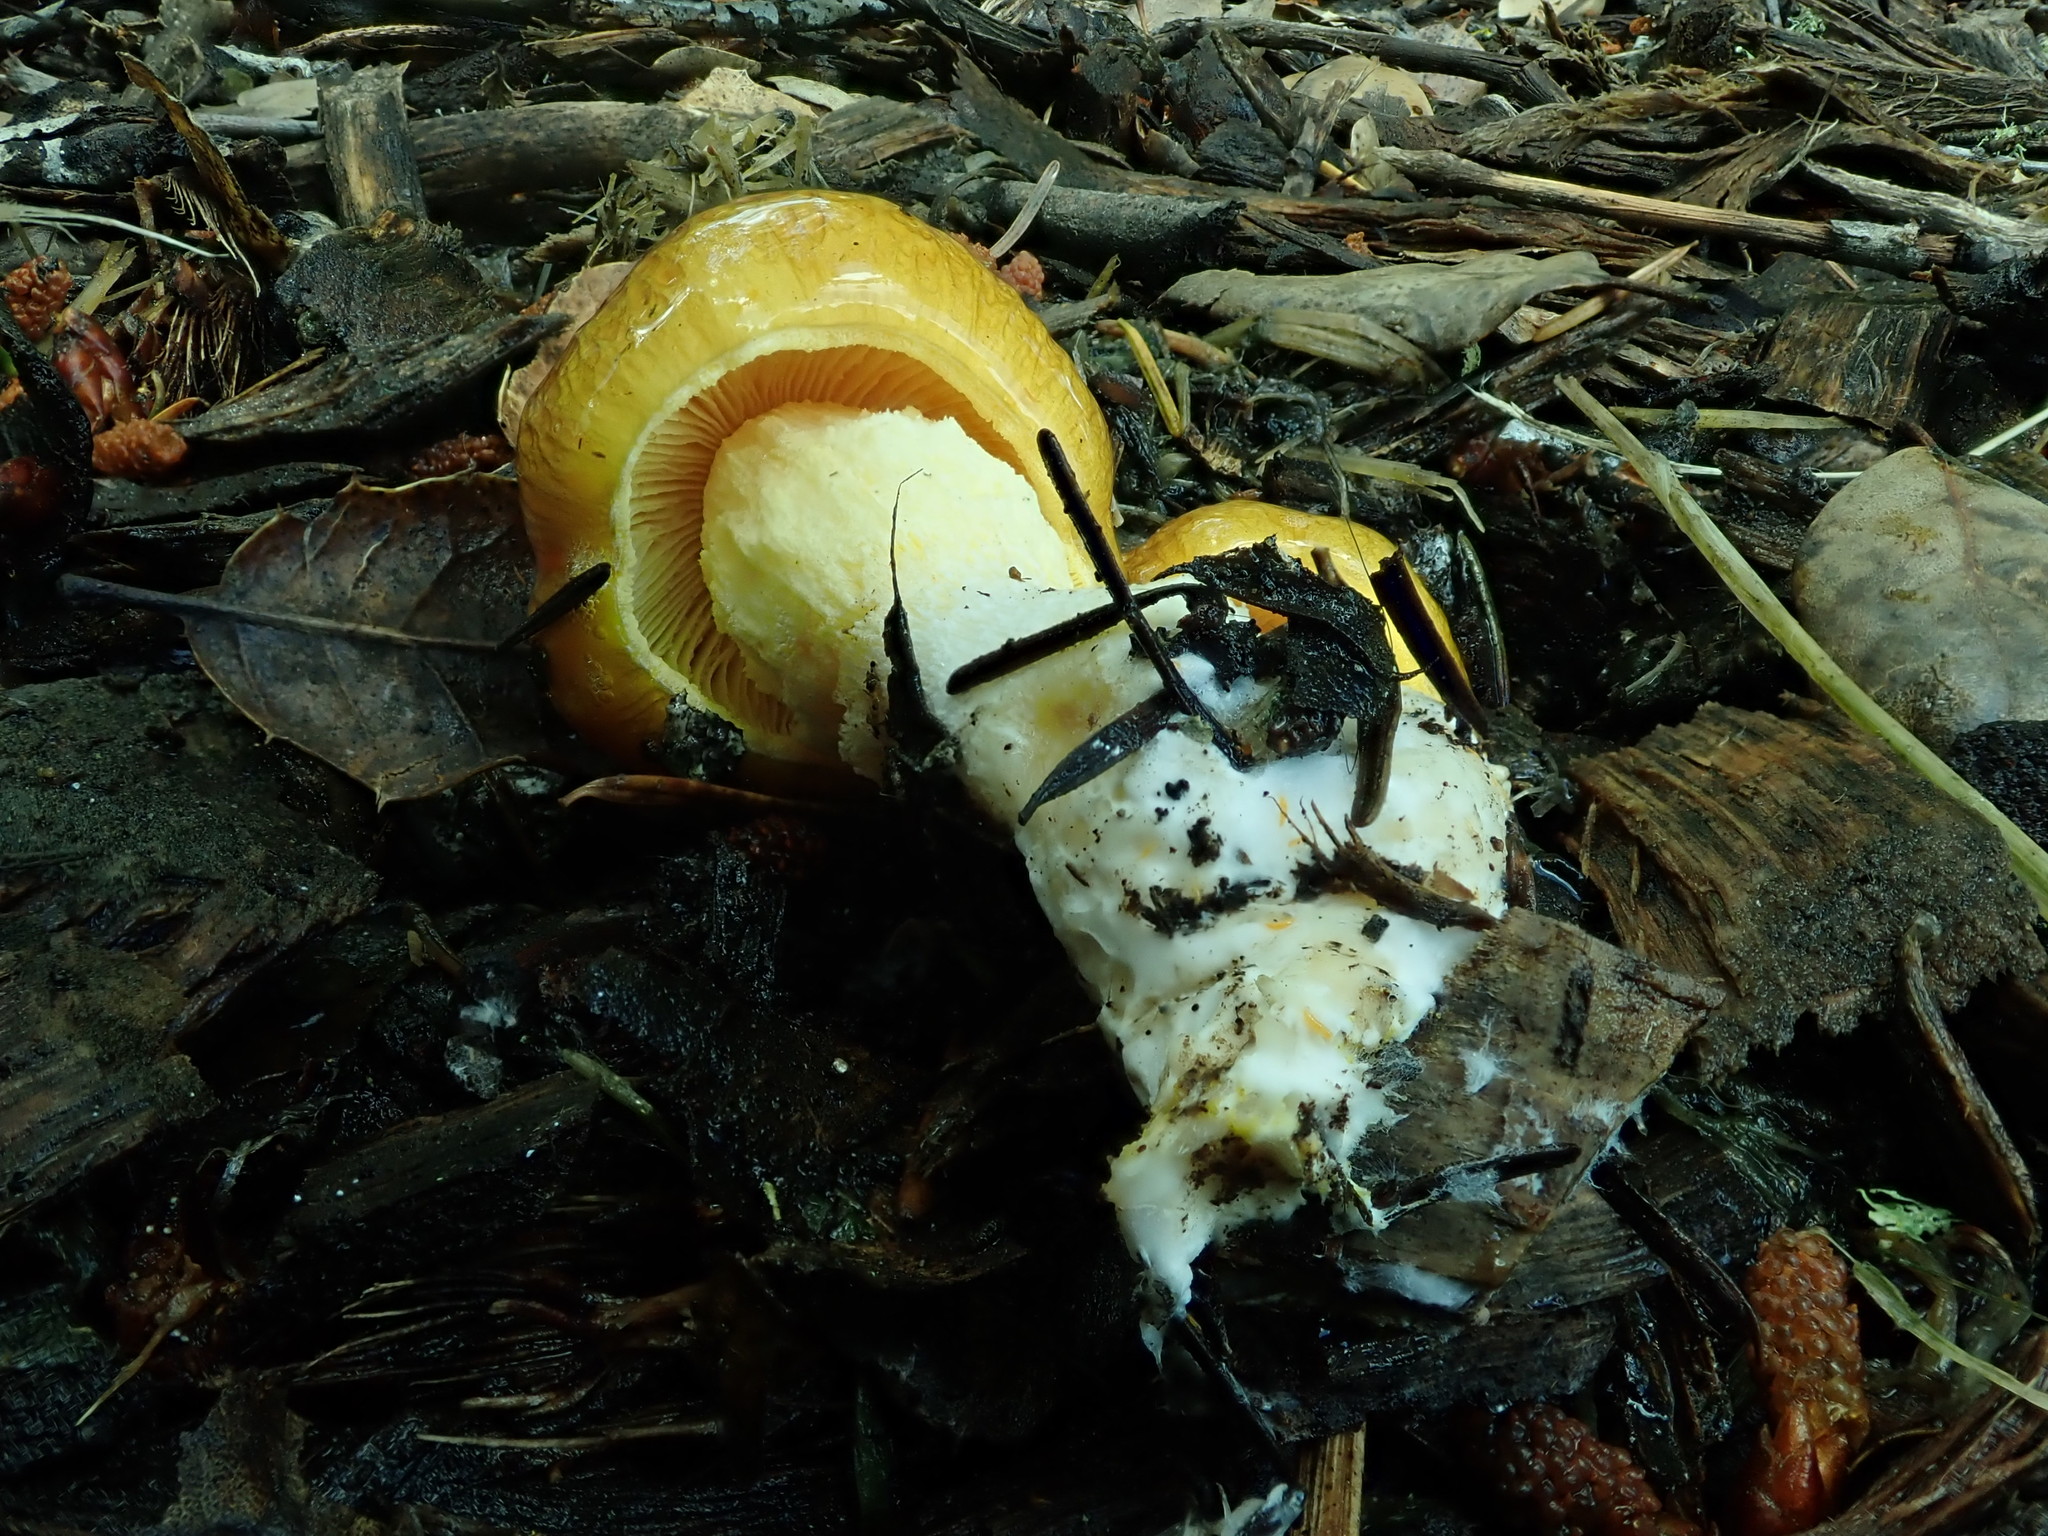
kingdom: Fungi
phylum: Basidiomycota
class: Agaricomycetes
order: Agaricales
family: Bolbitiaceae
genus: Bolbitius
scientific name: Bolbitius titubans
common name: Yellow fieldcap
